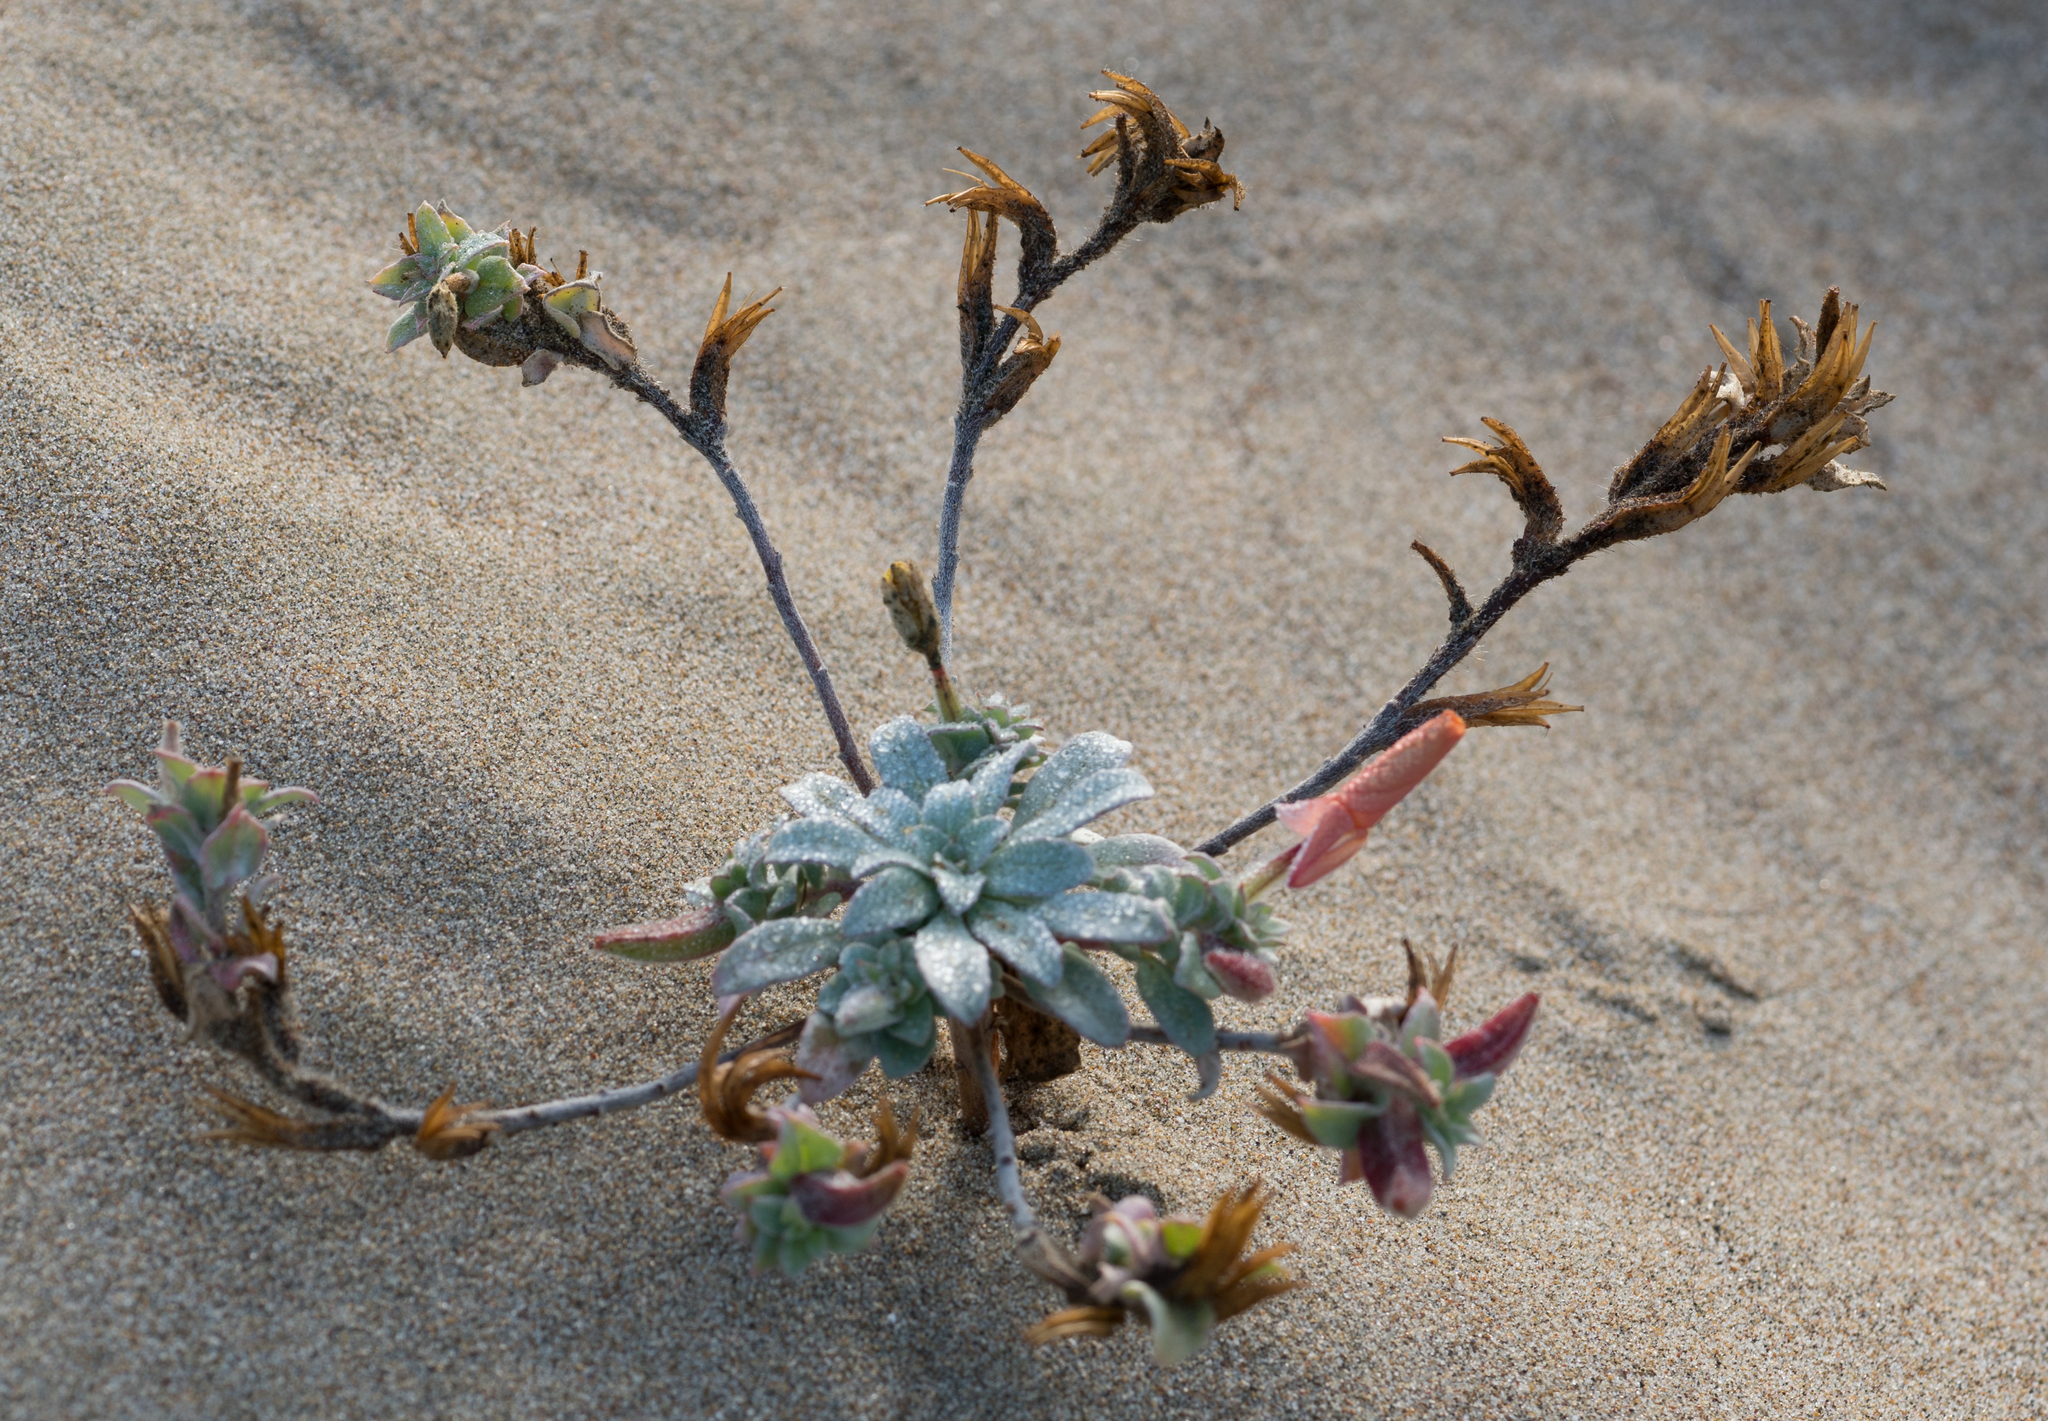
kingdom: Plantae
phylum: Tracheophyta
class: Magnoliopsida
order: Myrtales
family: Onagraceae
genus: Camissoniopsis
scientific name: Camissoniopsis cheiranthifolia
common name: Beach suncup
